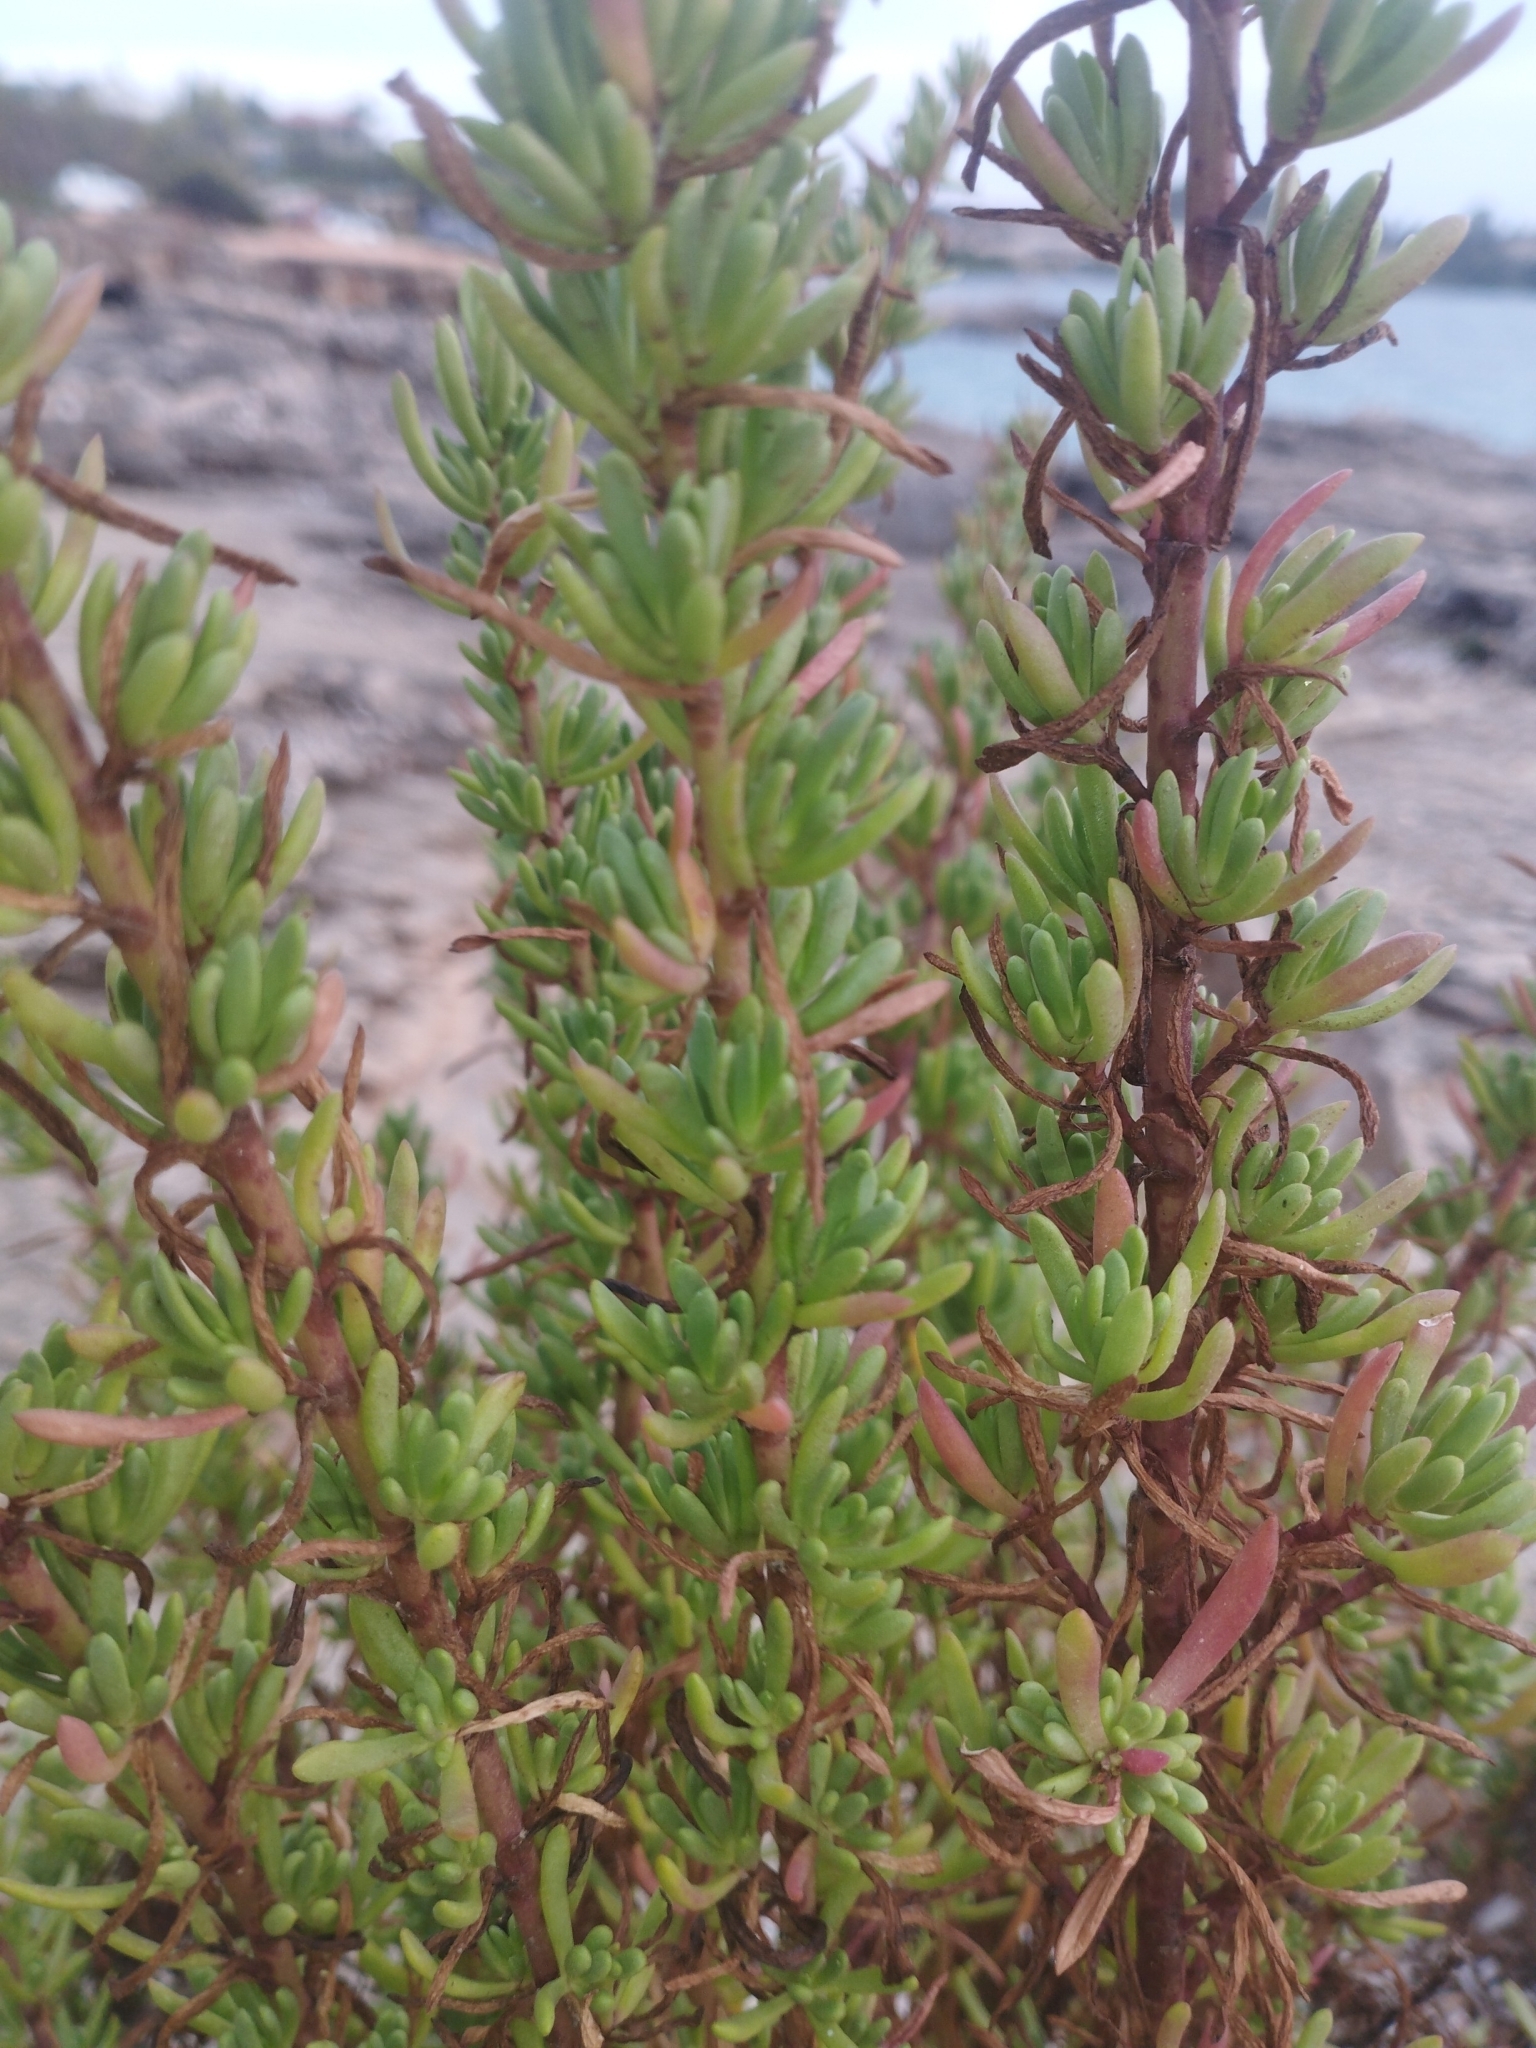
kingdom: Plantae
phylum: Tracheophyta
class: Magnoliopsida
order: Asterales
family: Asteraceae
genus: Limbarda
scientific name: Limbarda crithmoides
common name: Golden samphire
